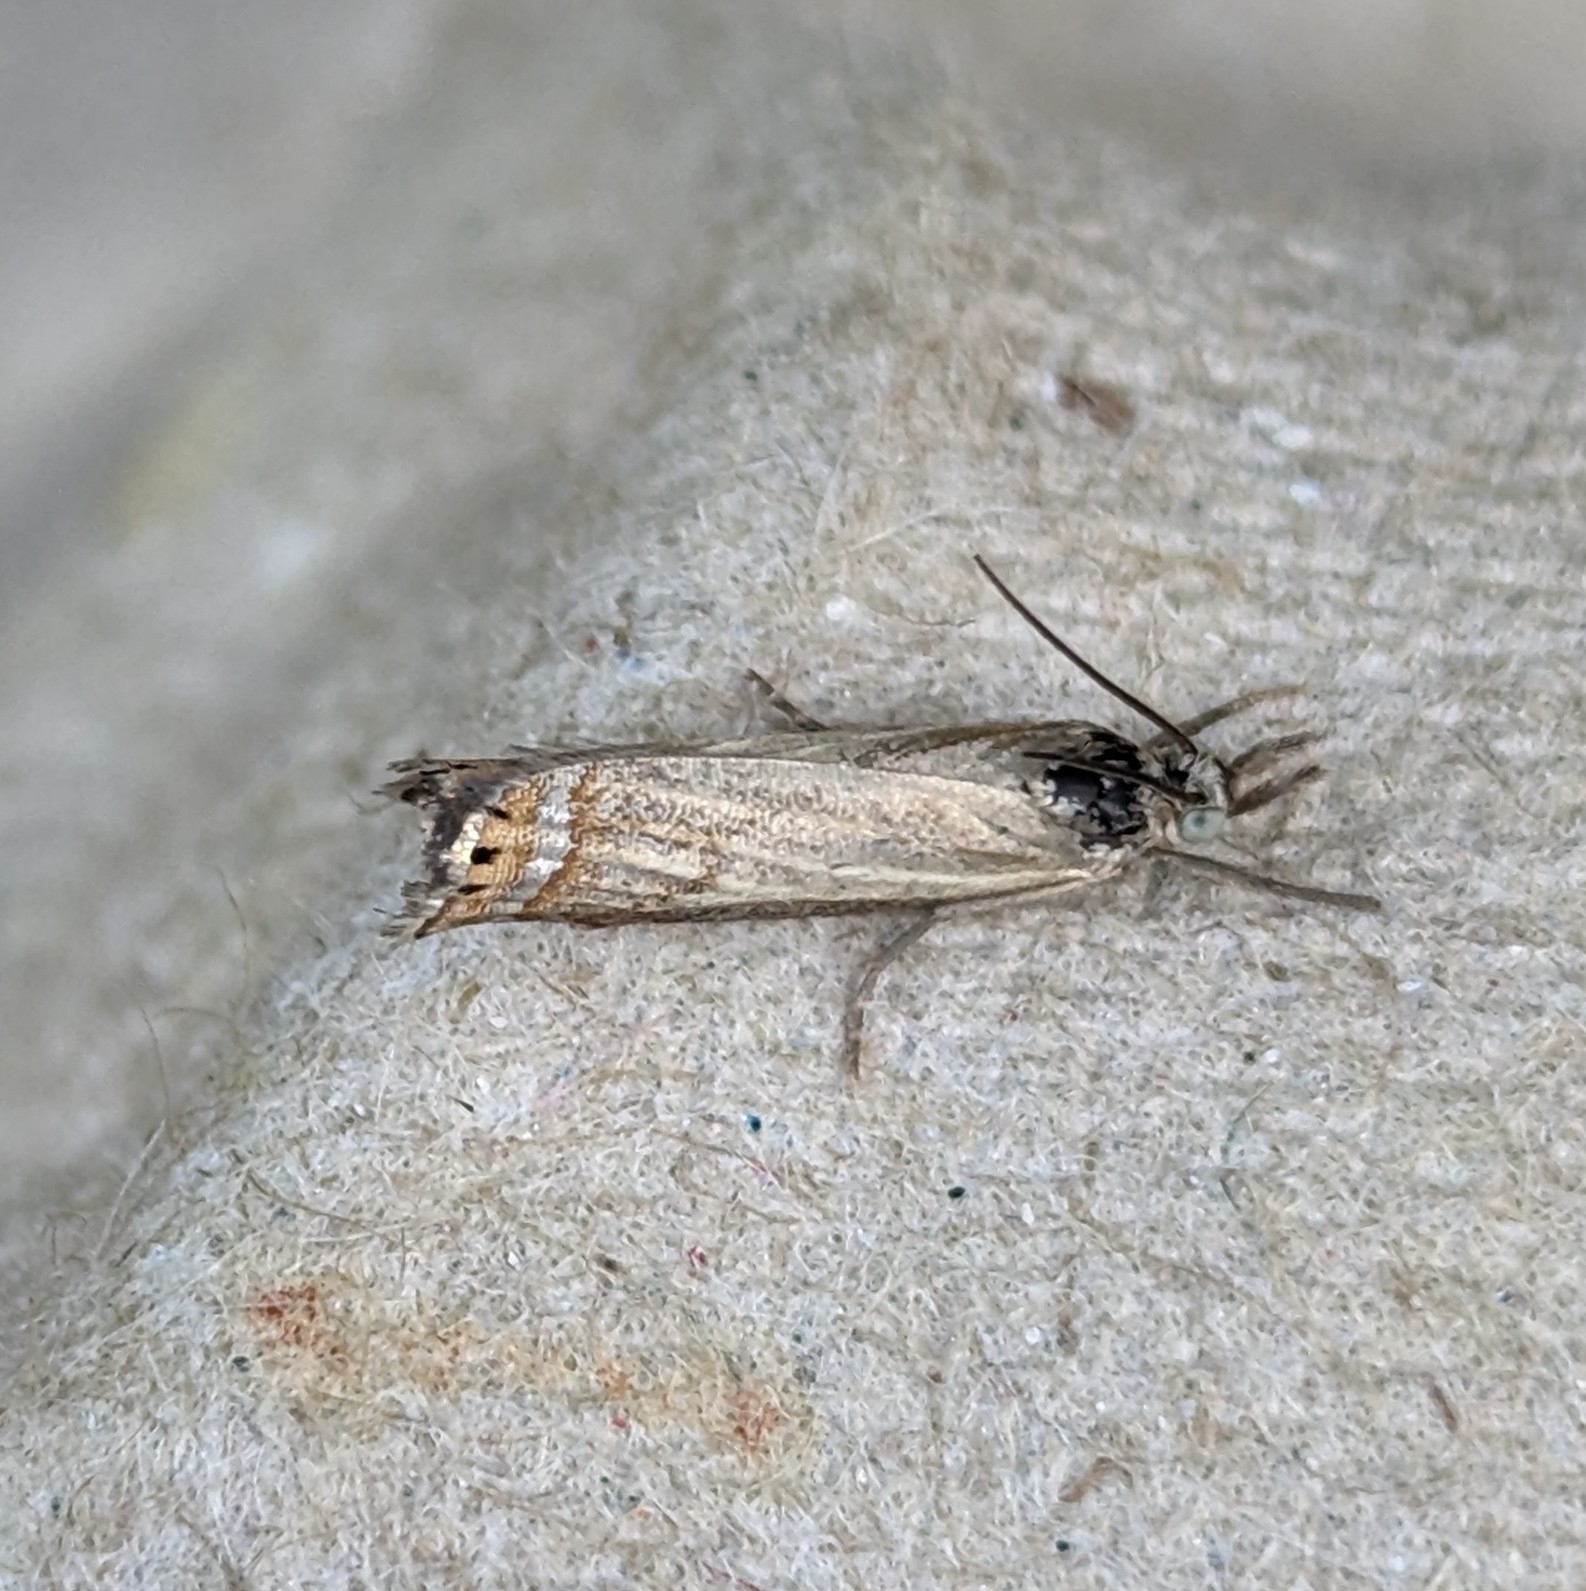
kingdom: Animalia
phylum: Arthropoda
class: Insecta
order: Lepidoptera
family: Crambidae
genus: Chrysoteuchia
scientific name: Chrysoteuchia topiarius
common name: Topiary grass-veneer
